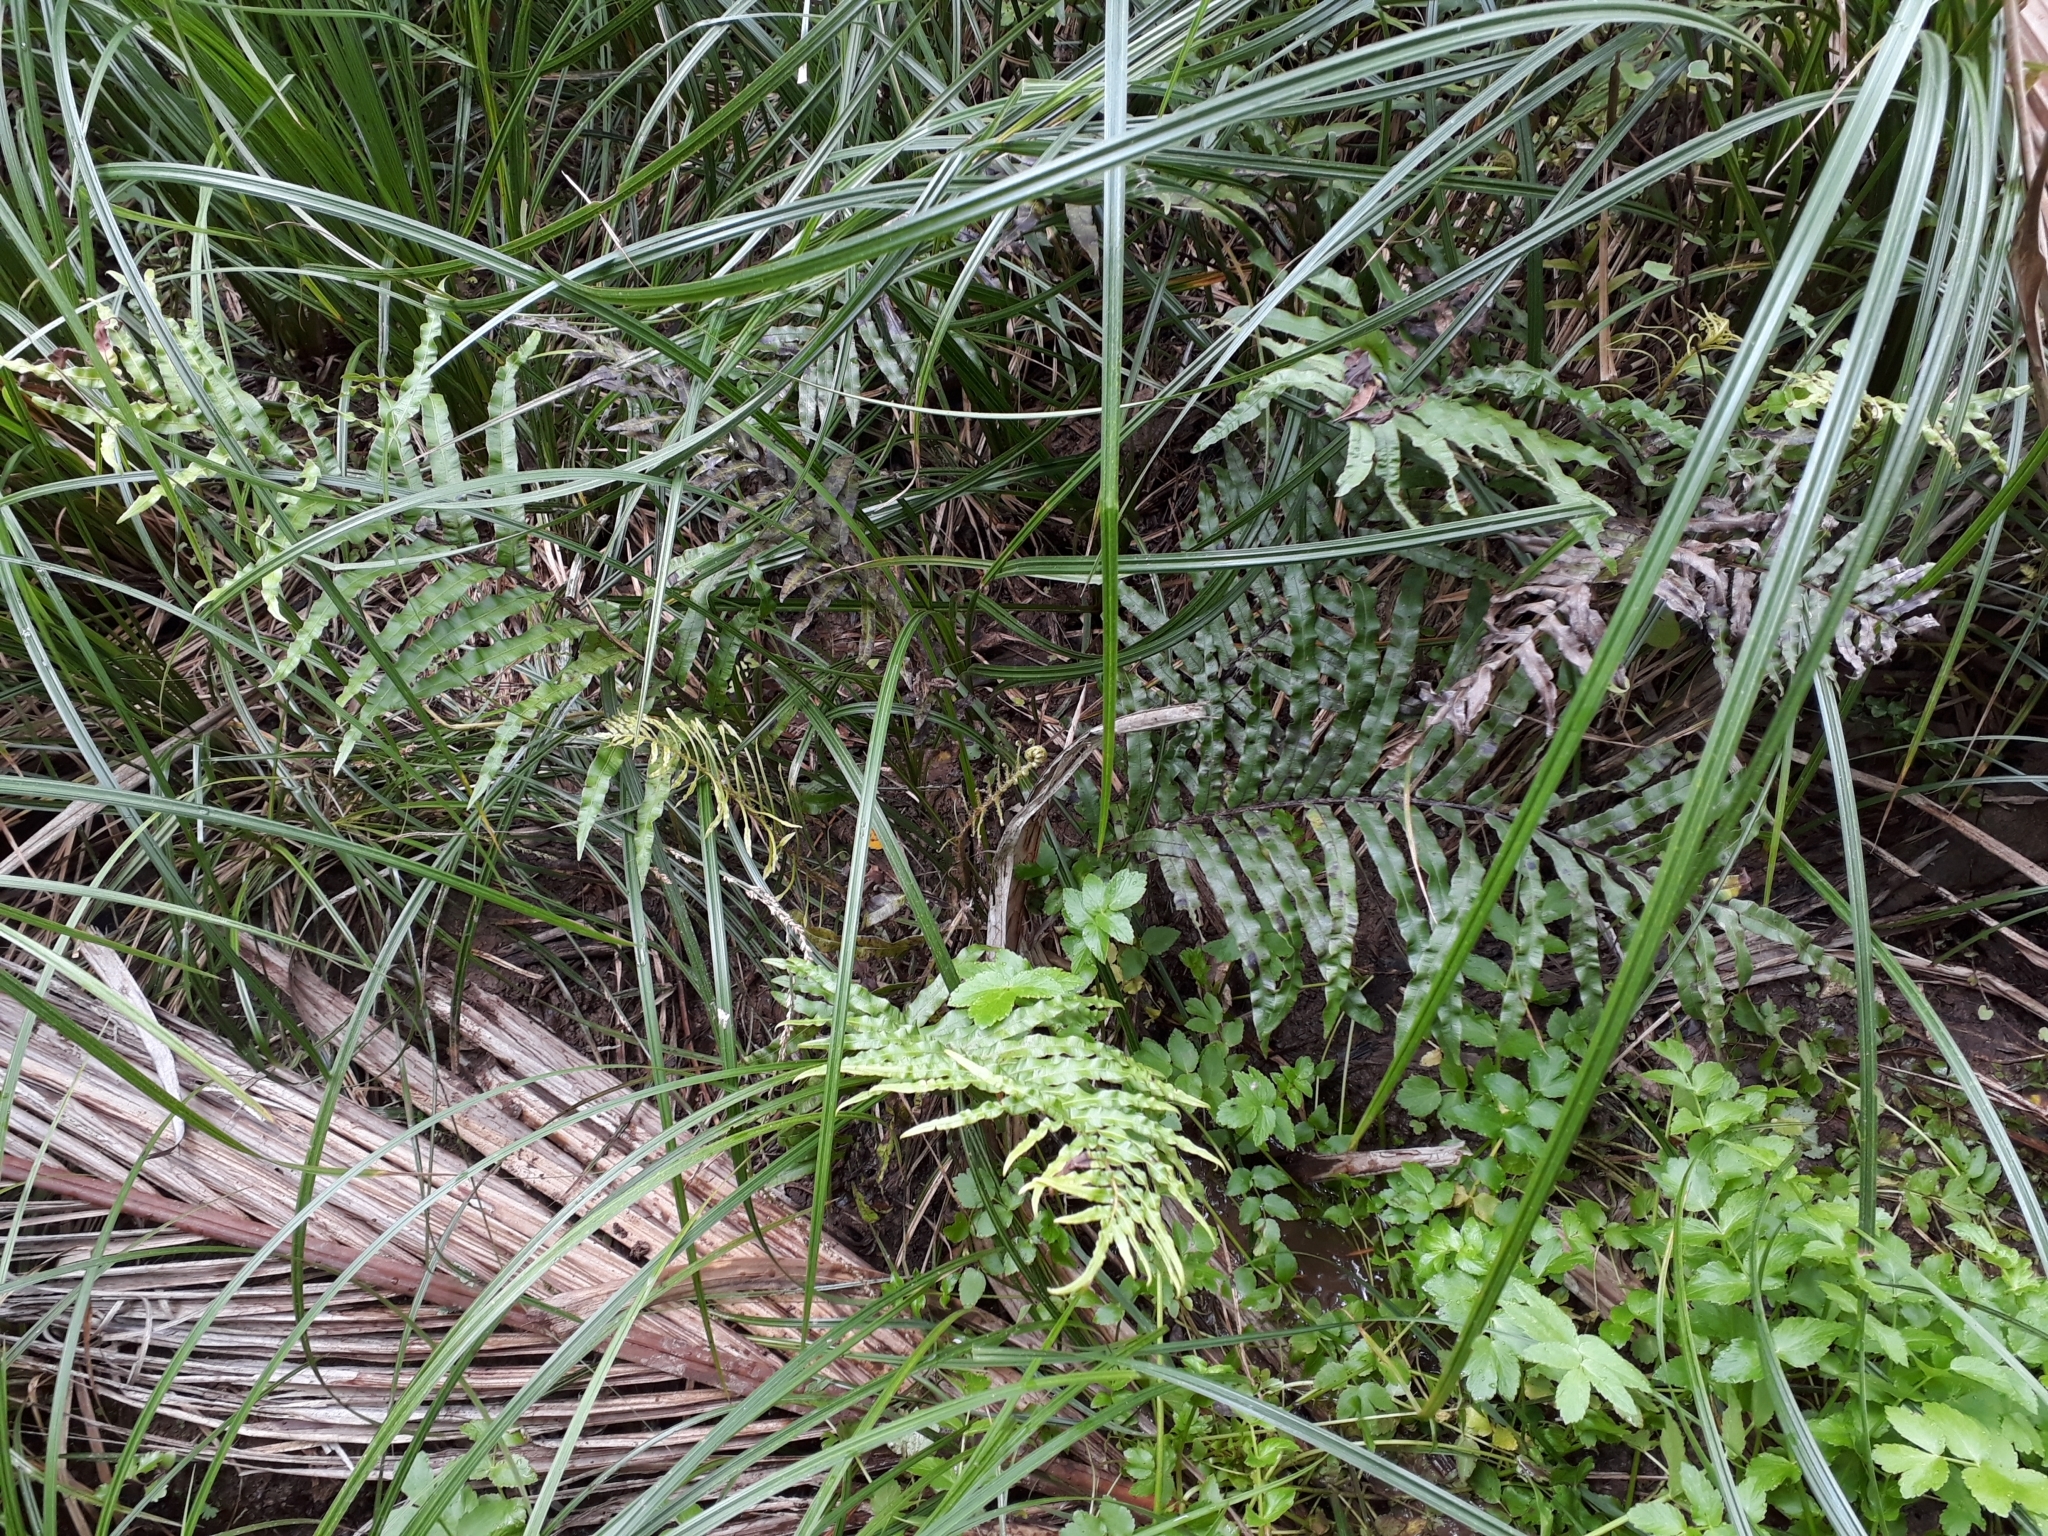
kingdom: Plantae
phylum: Tracheophyta
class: Polypodiopsida
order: Polypodiales
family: Blechnaceae
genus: Parablechnum
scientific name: Parablechnum minus
